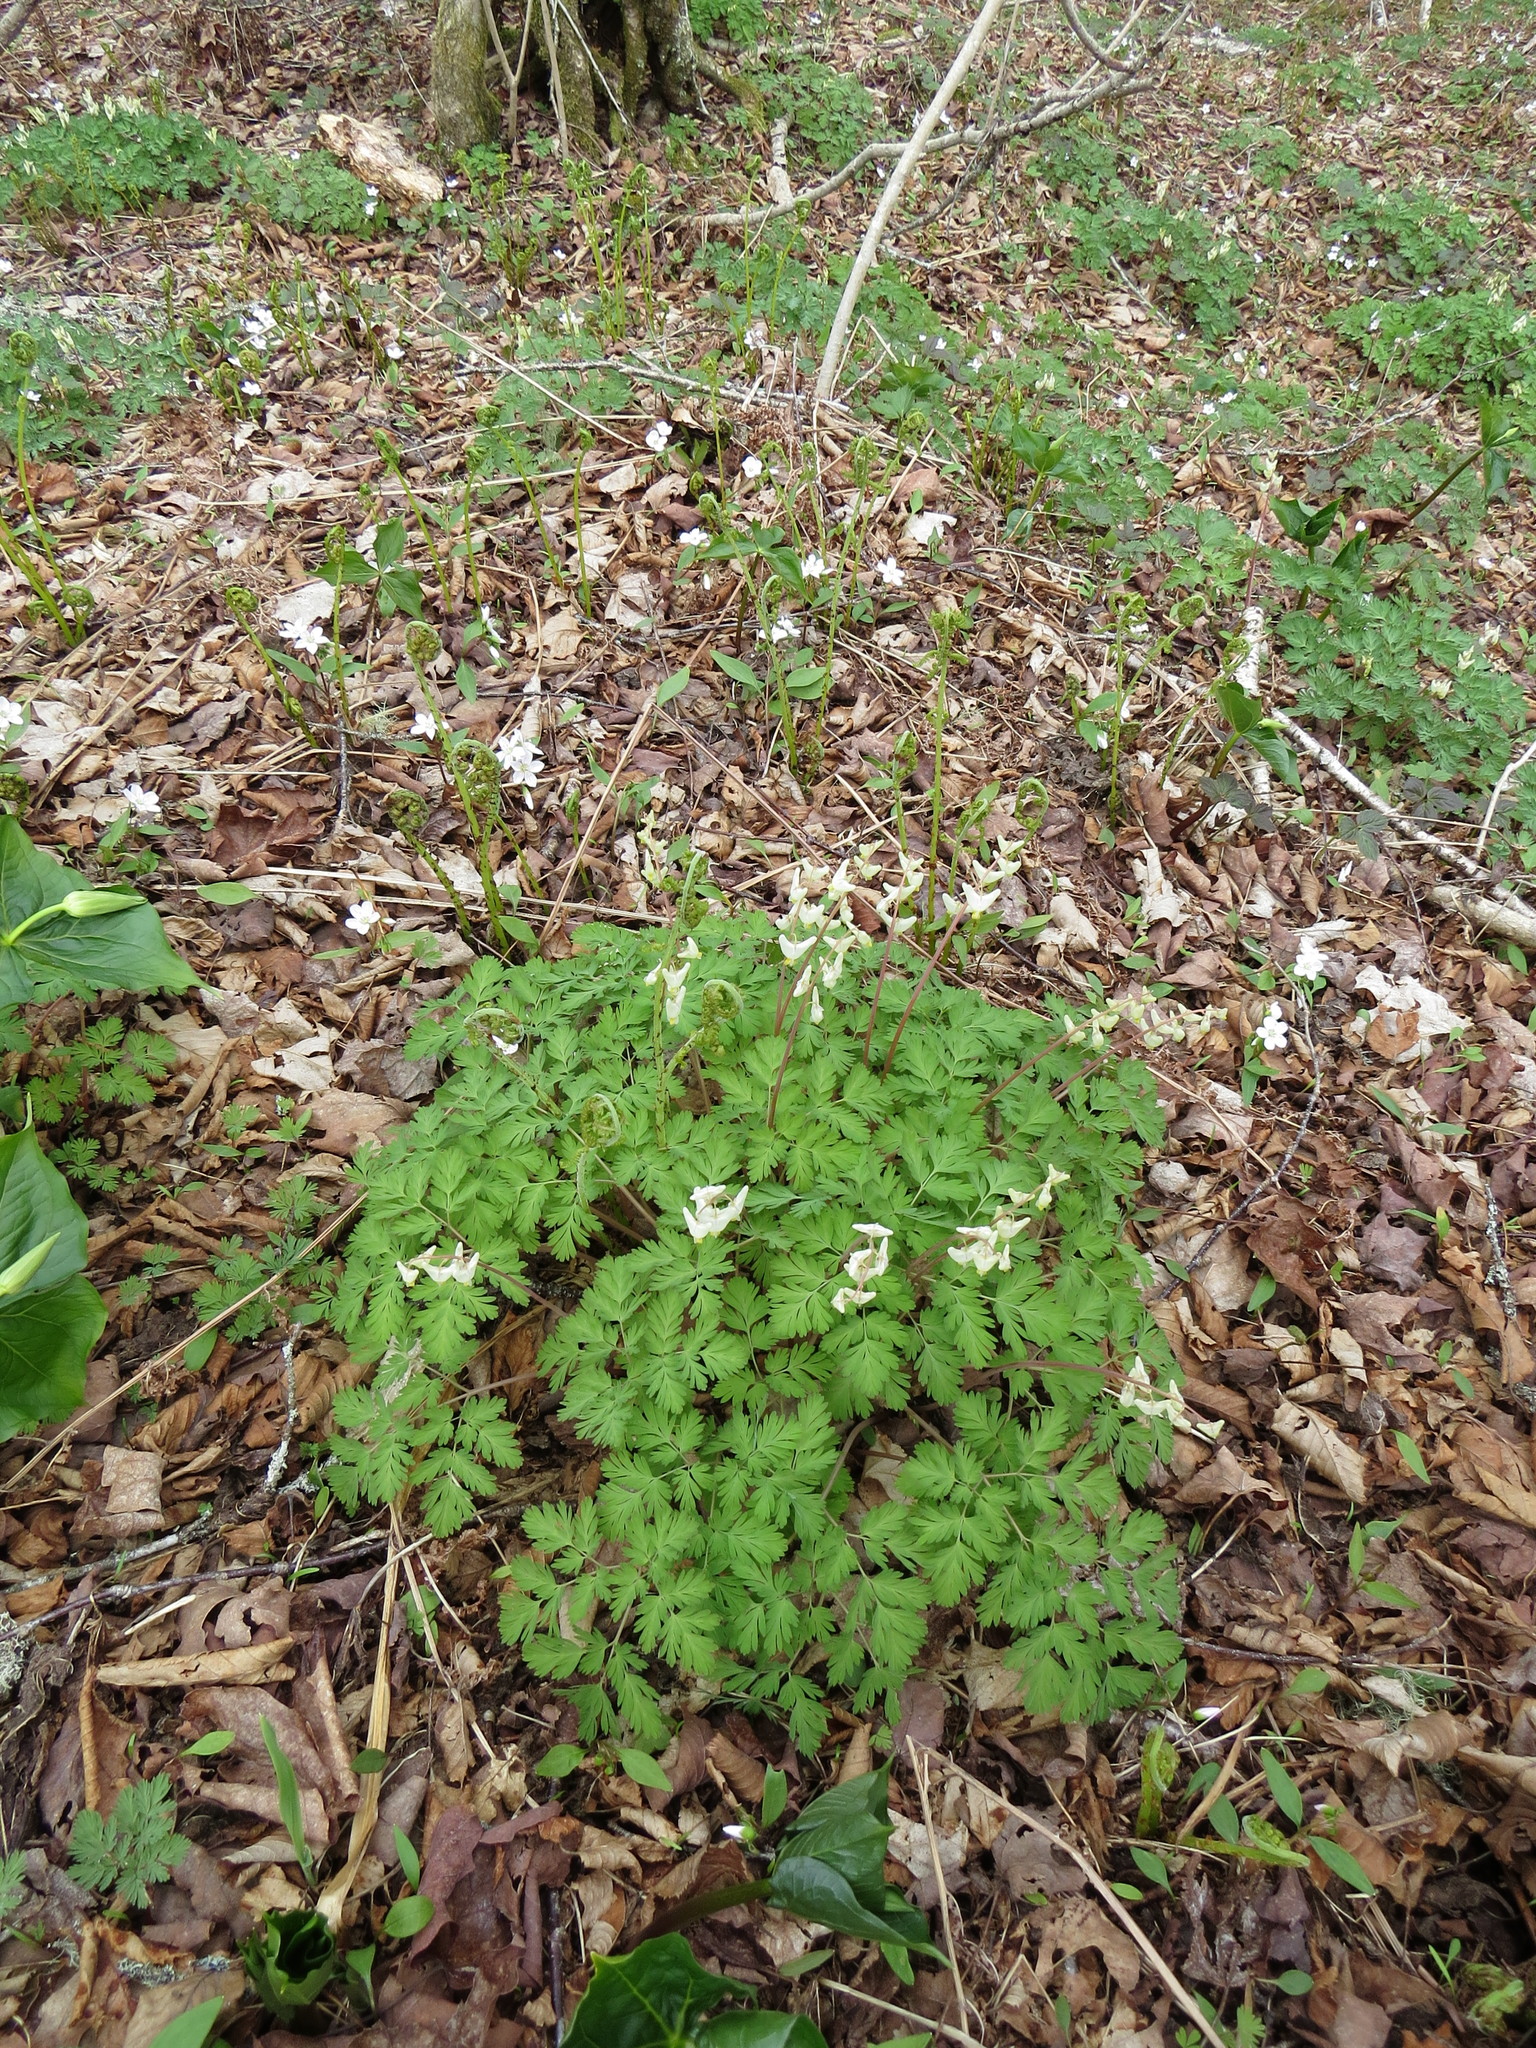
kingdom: Plantae
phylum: Tracheophyta
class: Magnoliopsida
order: Ranunculales
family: Papaveraceae
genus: Dicentra
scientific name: Dicentra cucullaria
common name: Dutchman's breeches
